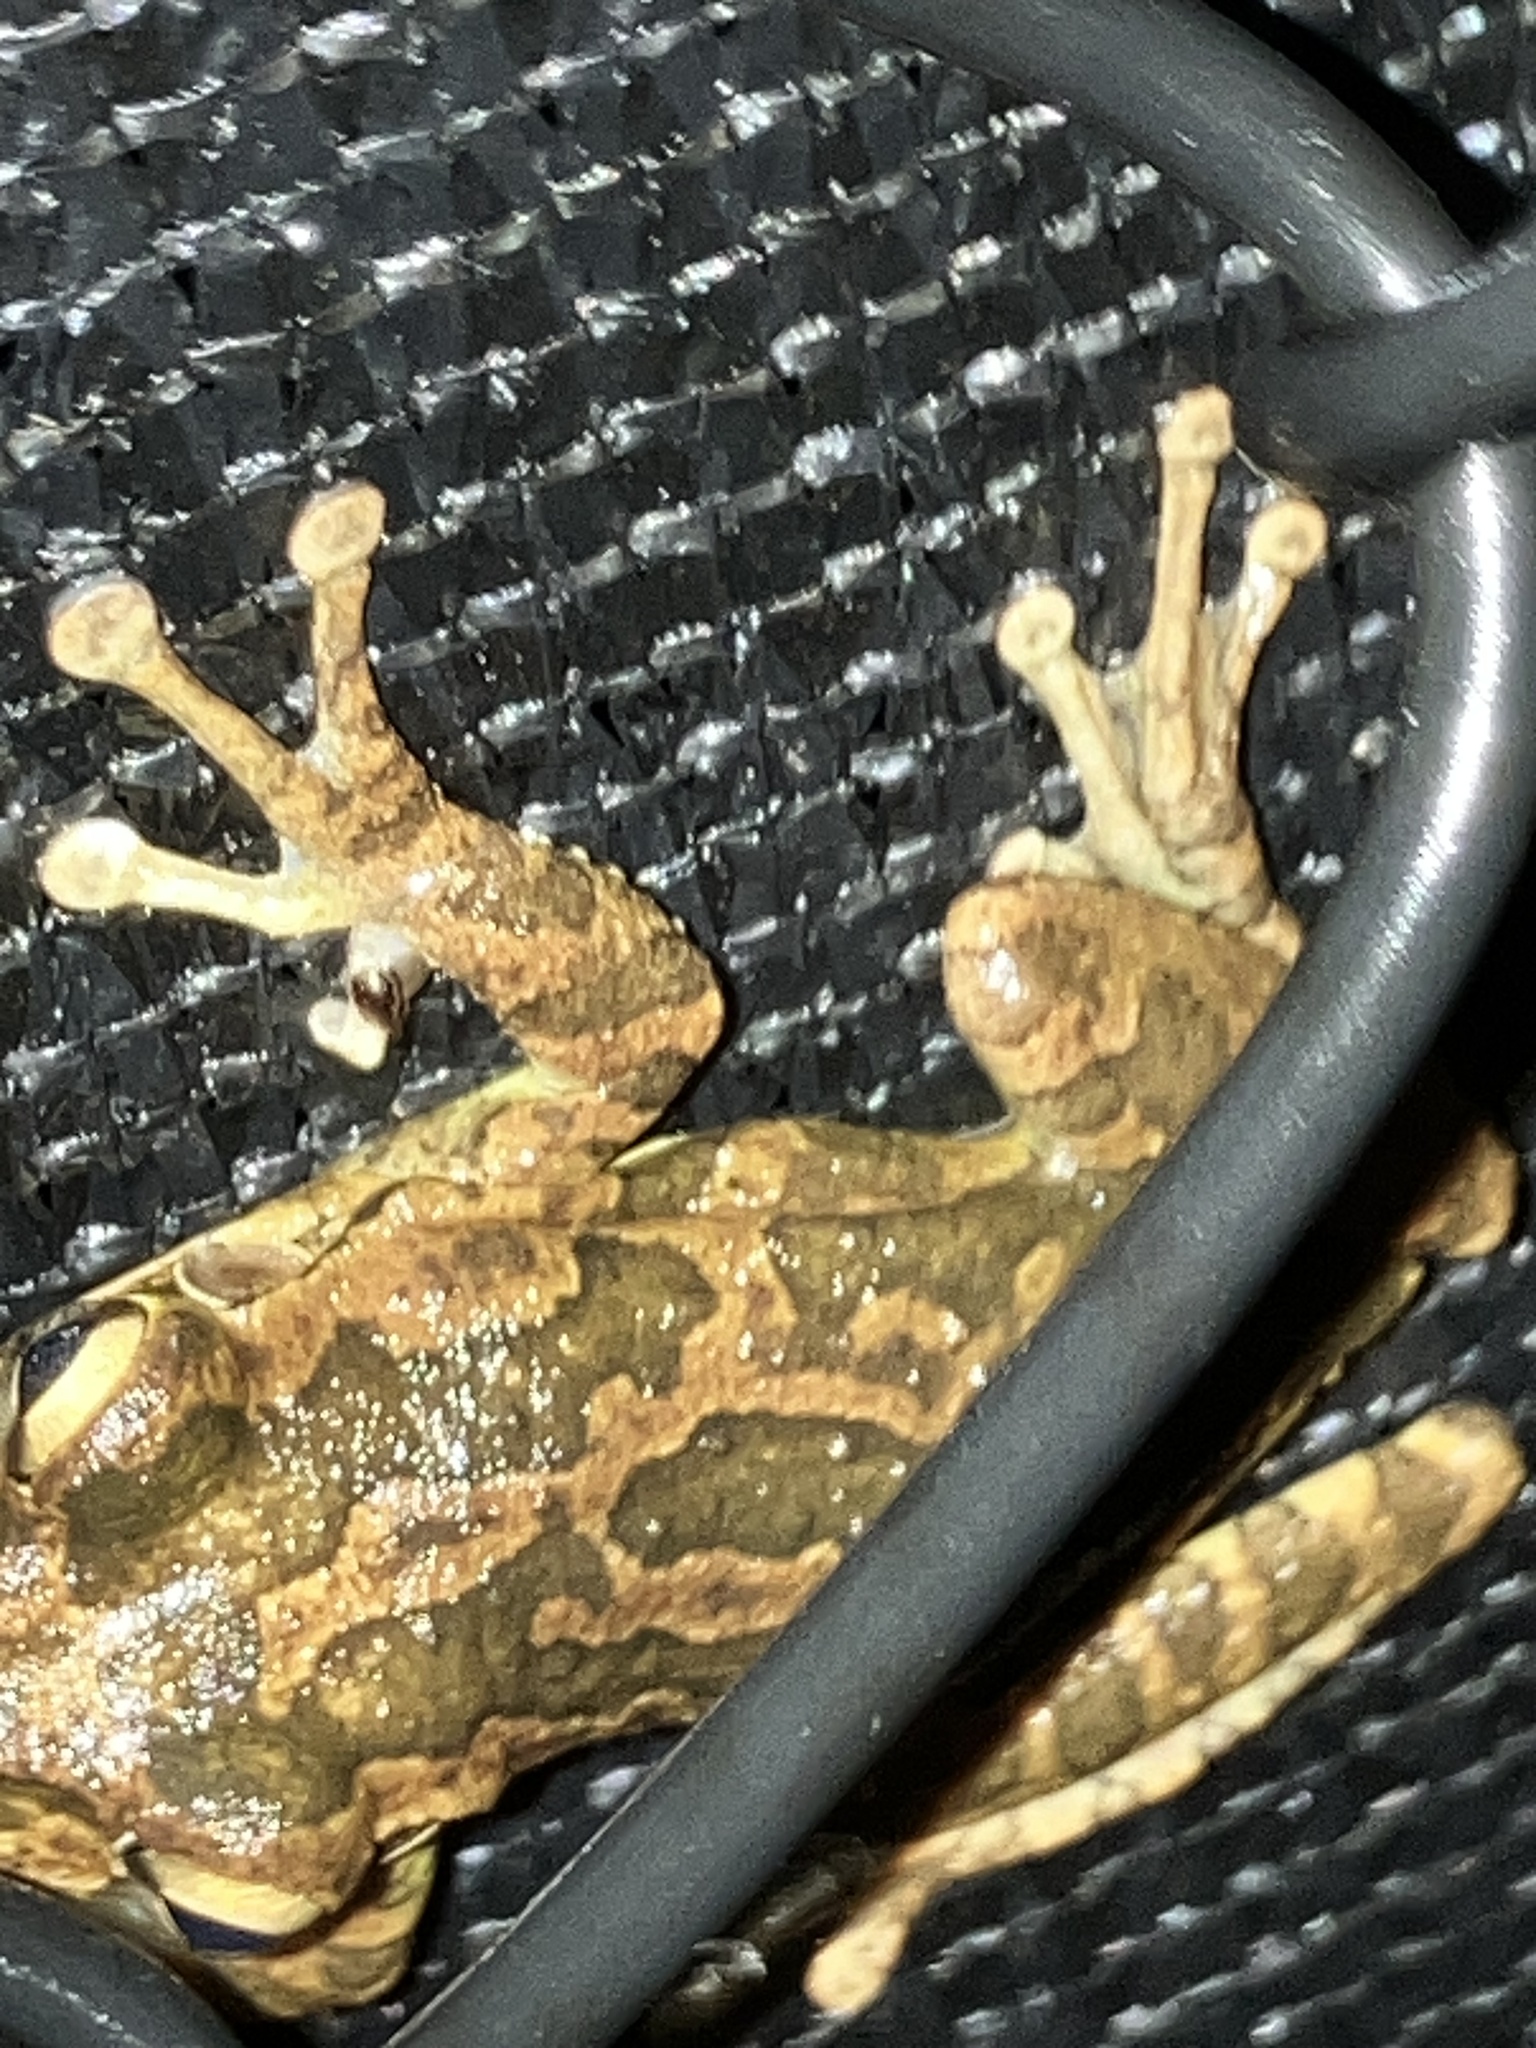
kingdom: Animalia
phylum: Chordata
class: Amphibia
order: Anura
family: Hylidae
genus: Osteopilus
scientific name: Osteopilus septentrionalis
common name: Cuban treefrog
